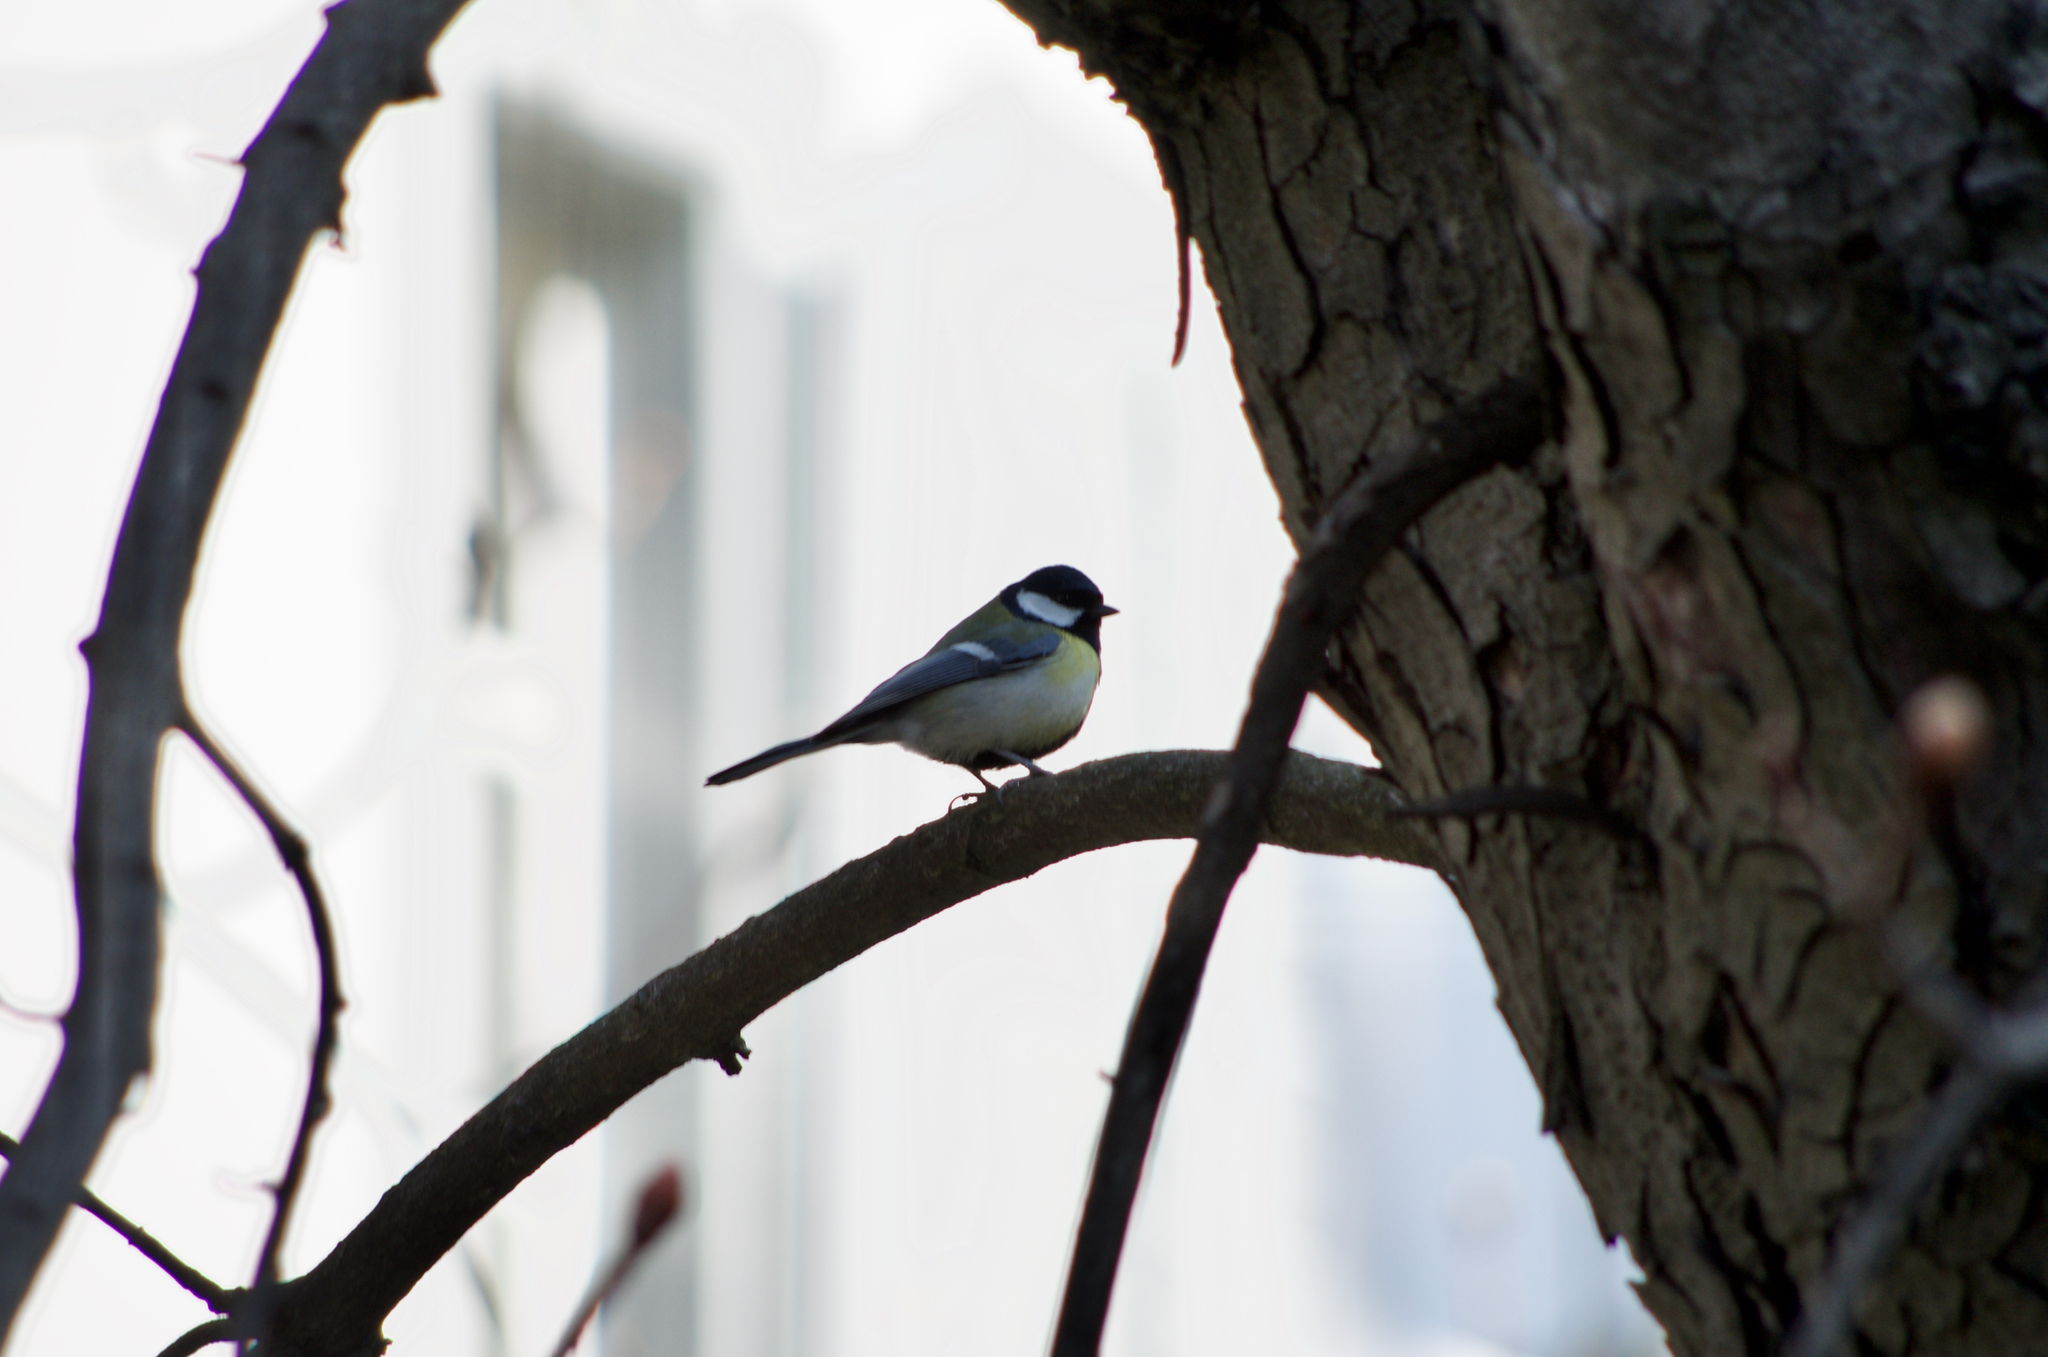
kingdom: Animalia
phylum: Chordata
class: Aves
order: Passeriformes
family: Paridae
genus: Parus
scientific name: Parus major
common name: Great tit
